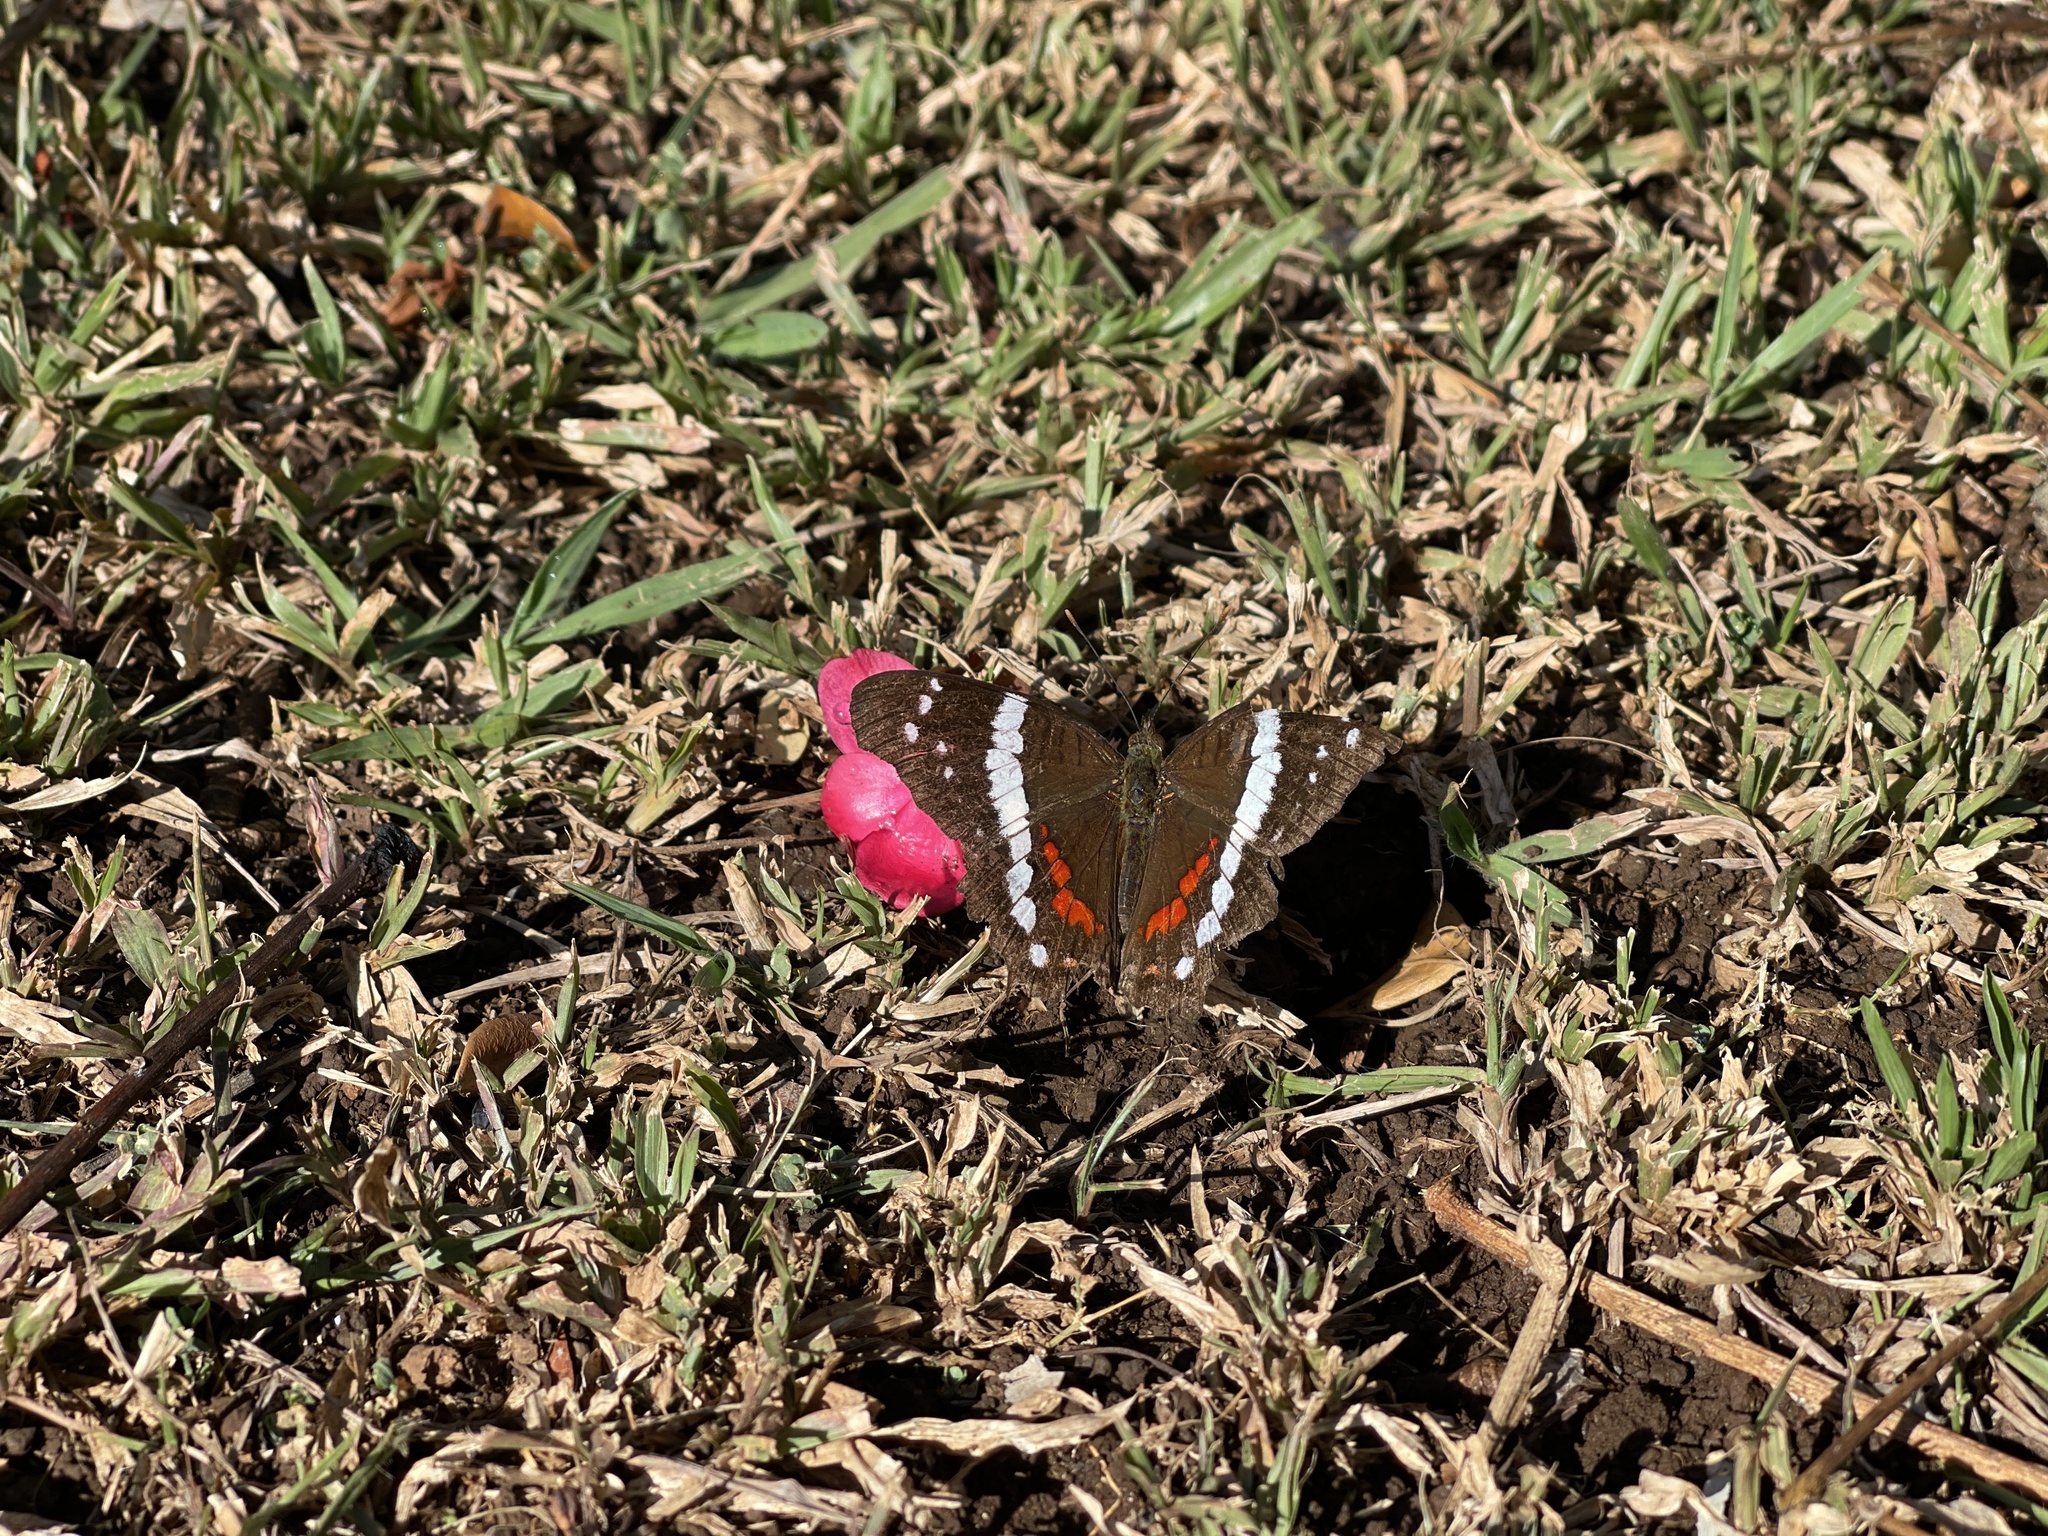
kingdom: Animalia
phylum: Arthropoda
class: Insecta
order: Lepidoptera
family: Nymphalidae
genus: Anartia
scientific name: Anartia fatima
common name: Banded peacock
